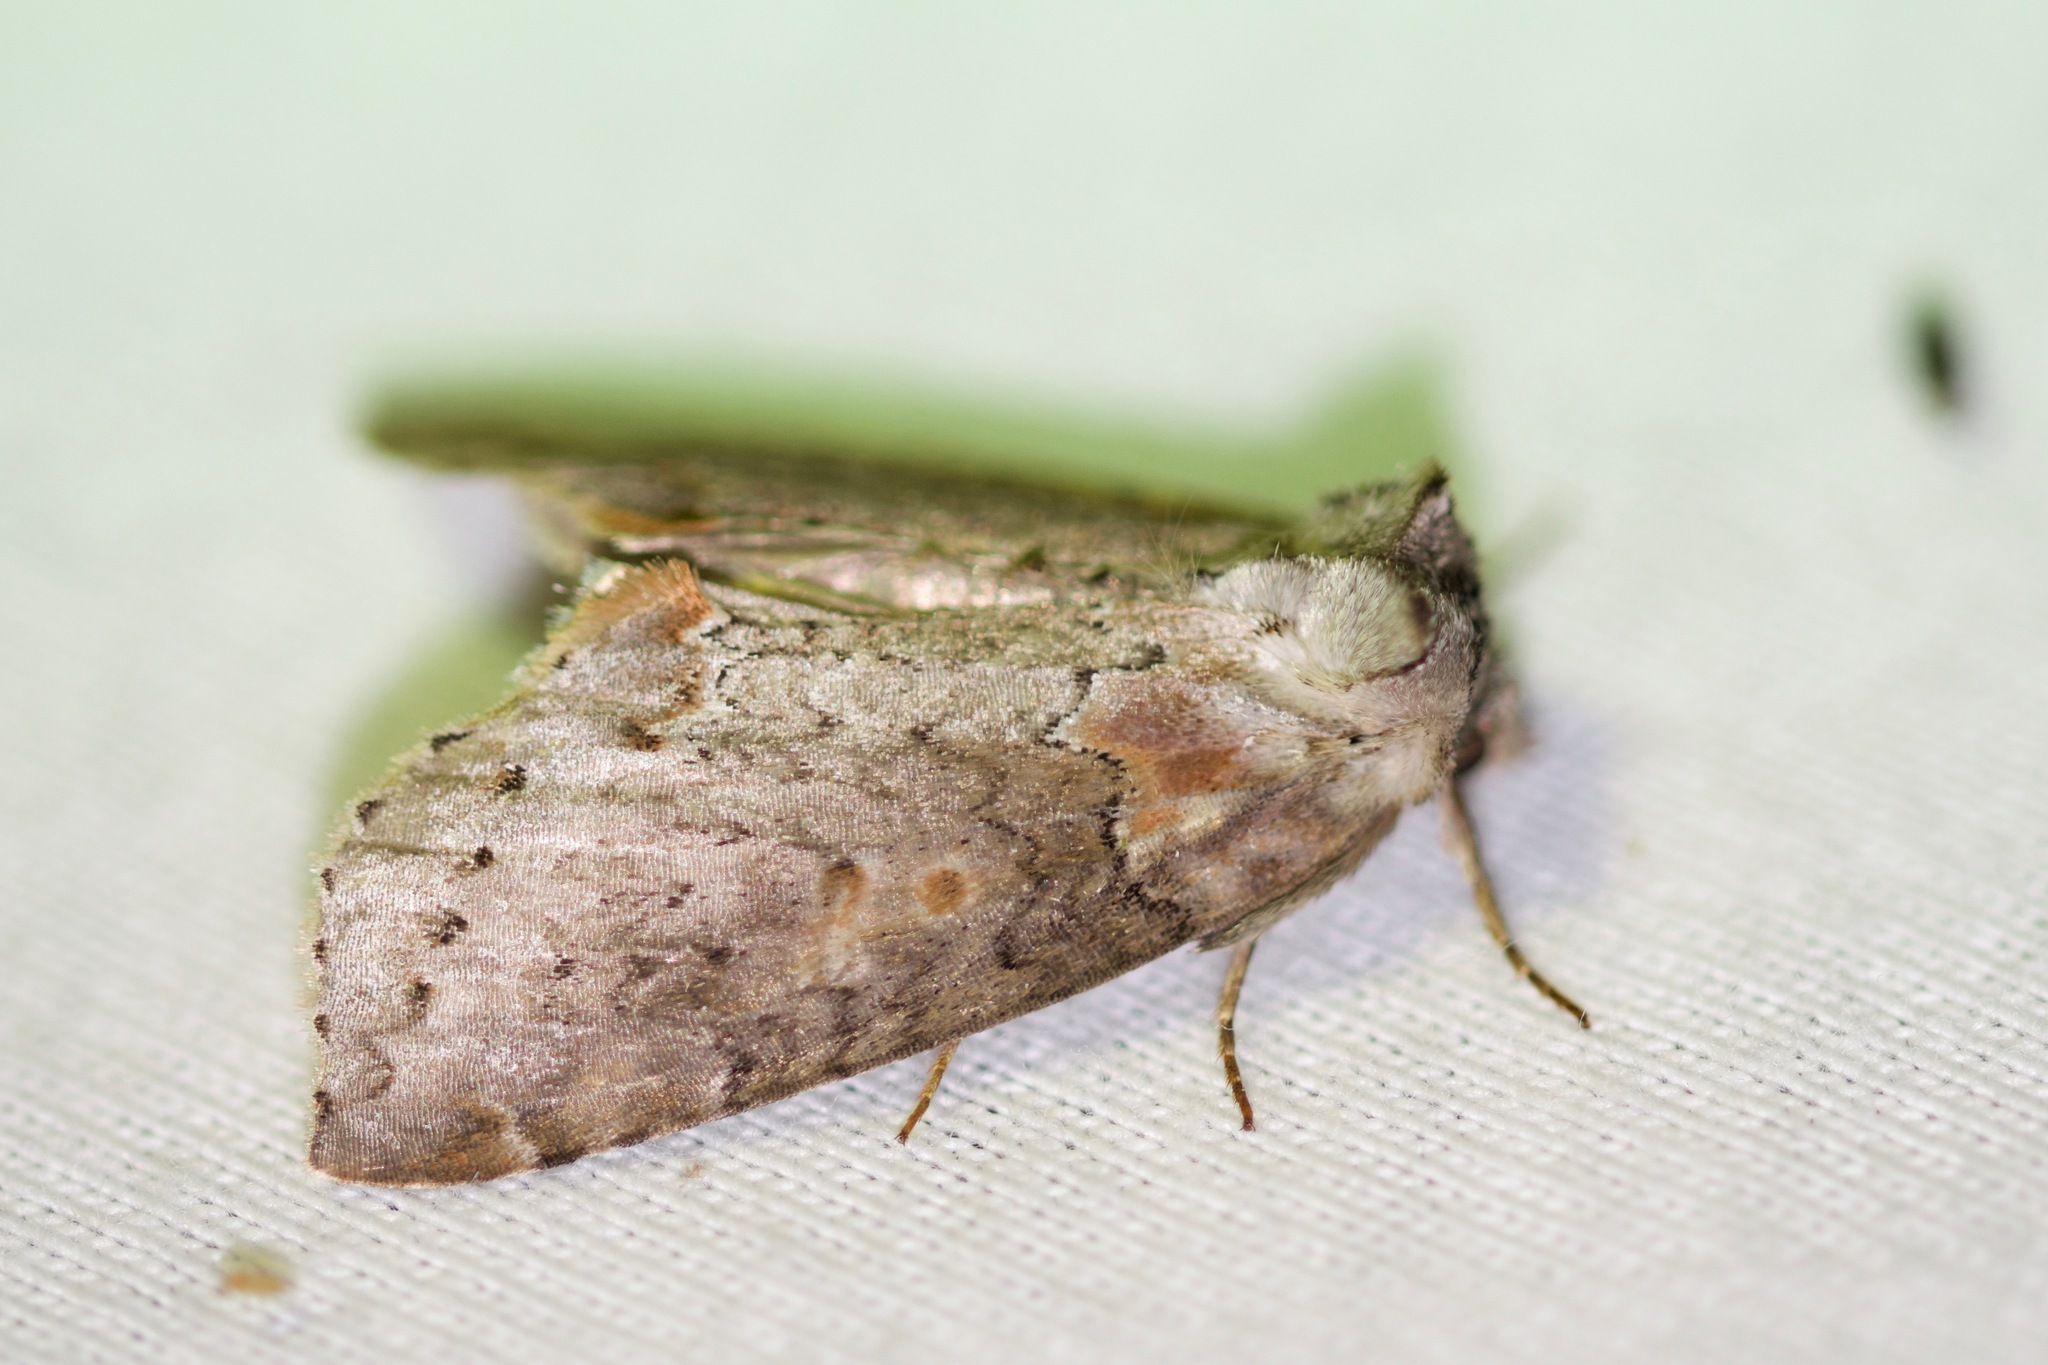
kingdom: Animalia
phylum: Arthropoda
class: Insecta
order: Lepidoptera
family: Drepanidae
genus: Pseudothyatira
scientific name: Pseudothyatira cymatophoroides
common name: Tufted thyatirid moth
